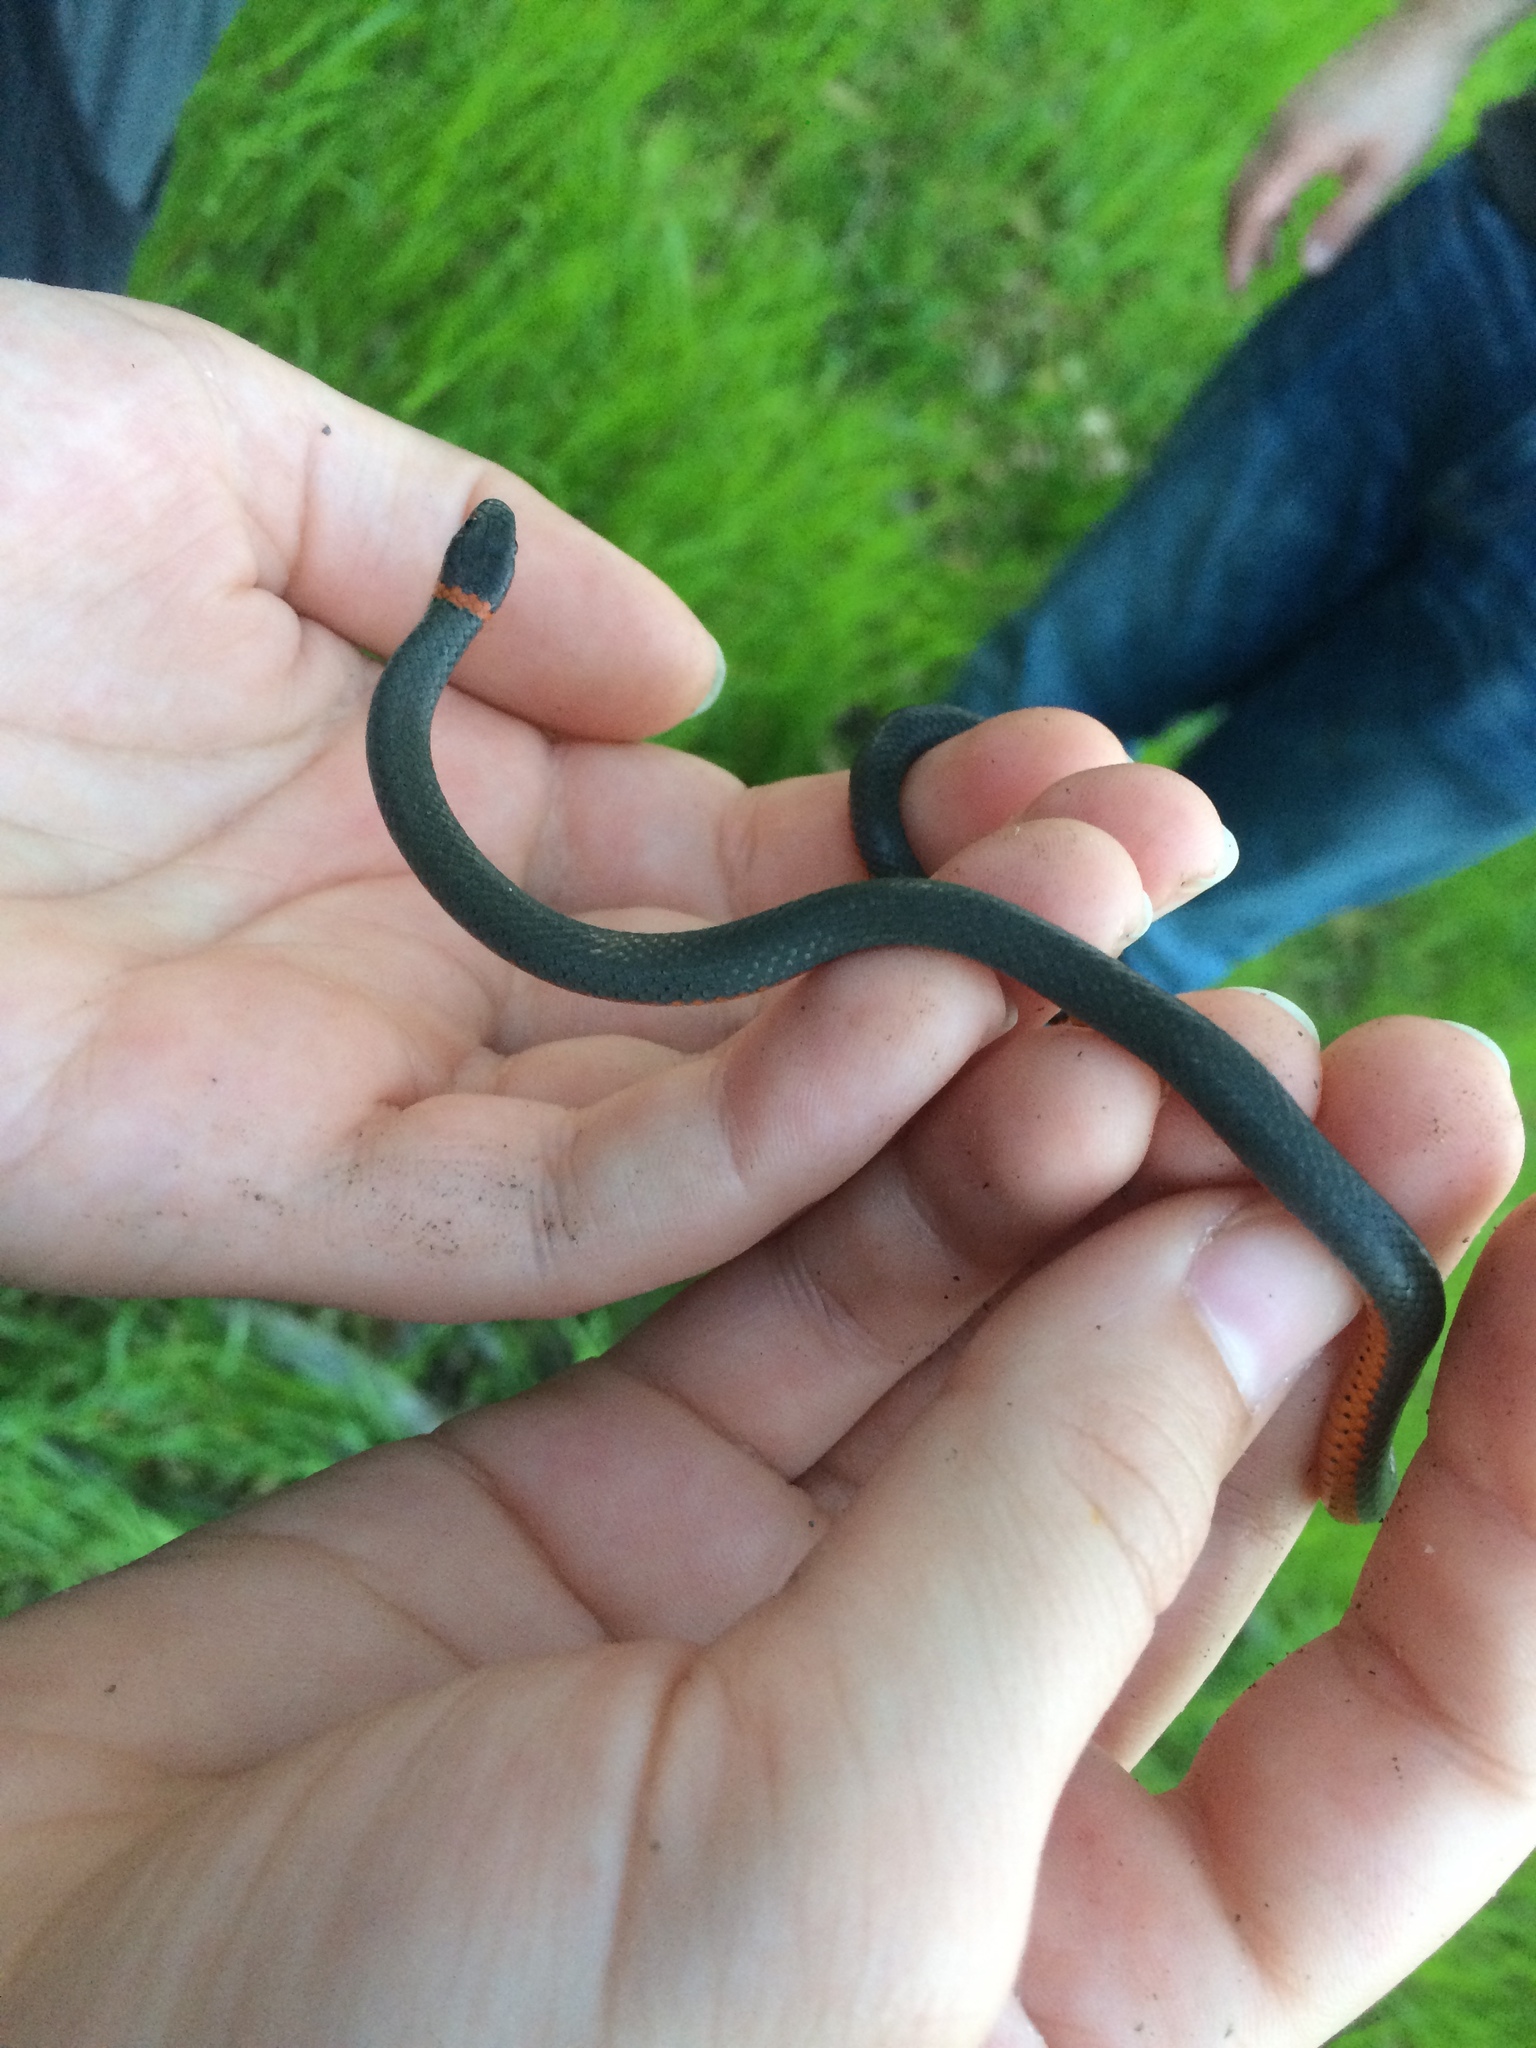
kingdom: Animalia
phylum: Chordata
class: Squamata
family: Colubridae
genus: Diadophis
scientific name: Diadophis punctatus
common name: Ringneck snake
